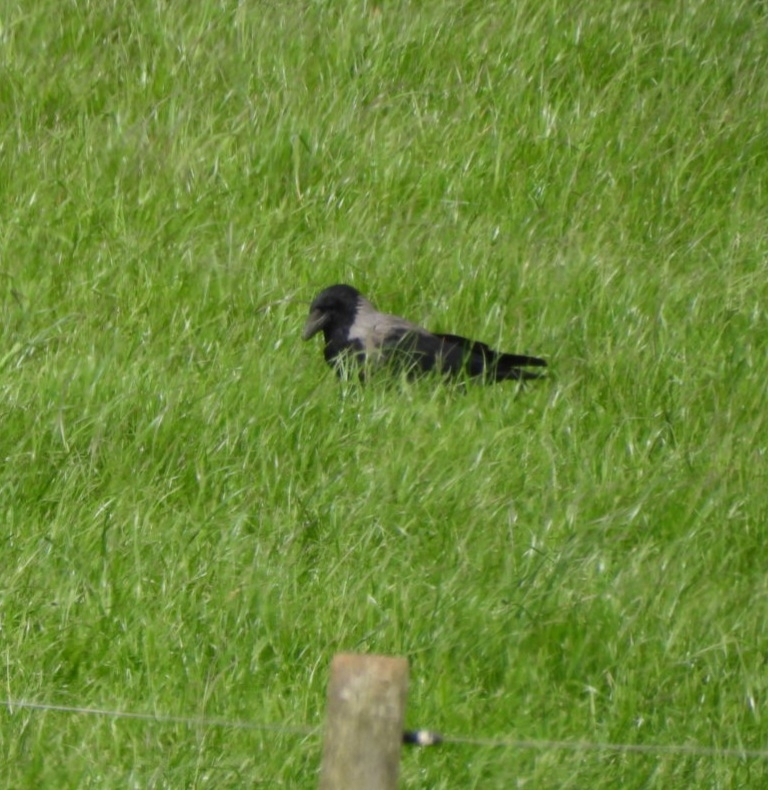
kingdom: Animalia
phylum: Chordata
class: Aves
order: Passeriformes
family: Corvidae
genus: Corvus
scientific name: Corvus cornix
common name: Hooded crow
